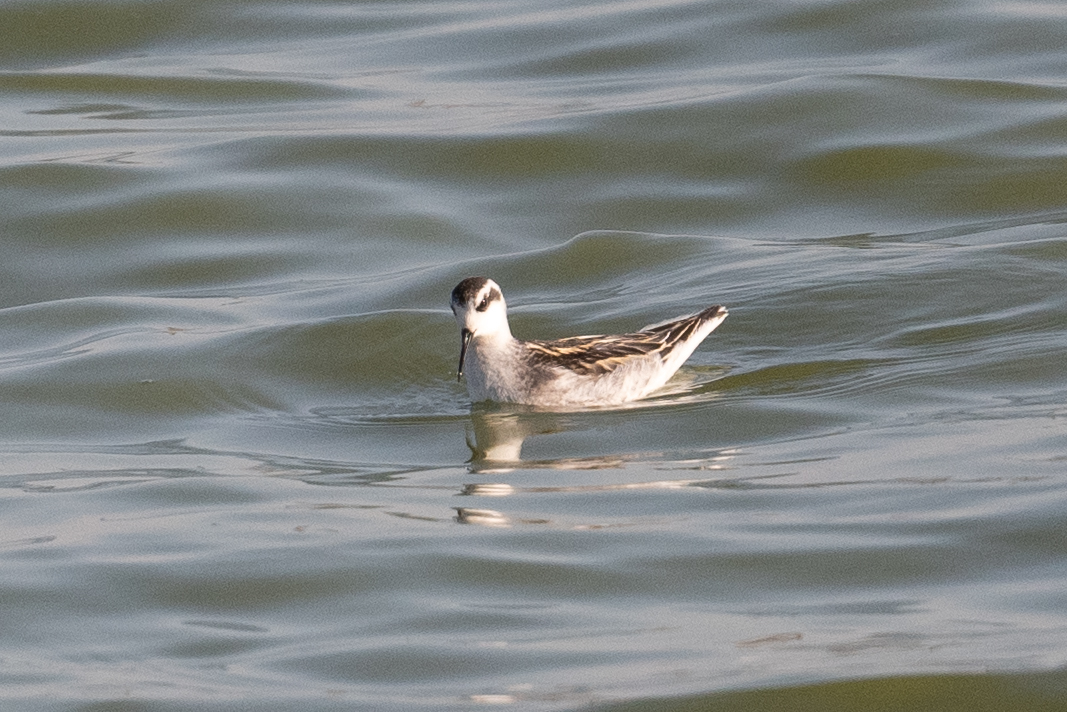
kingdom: Animalia
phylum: Chordata
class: Aves
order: Charadriiformes
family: Scolopacidae
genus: Phalaropus
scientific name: Phalaropus lobatus
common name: Red-necked phalarope
